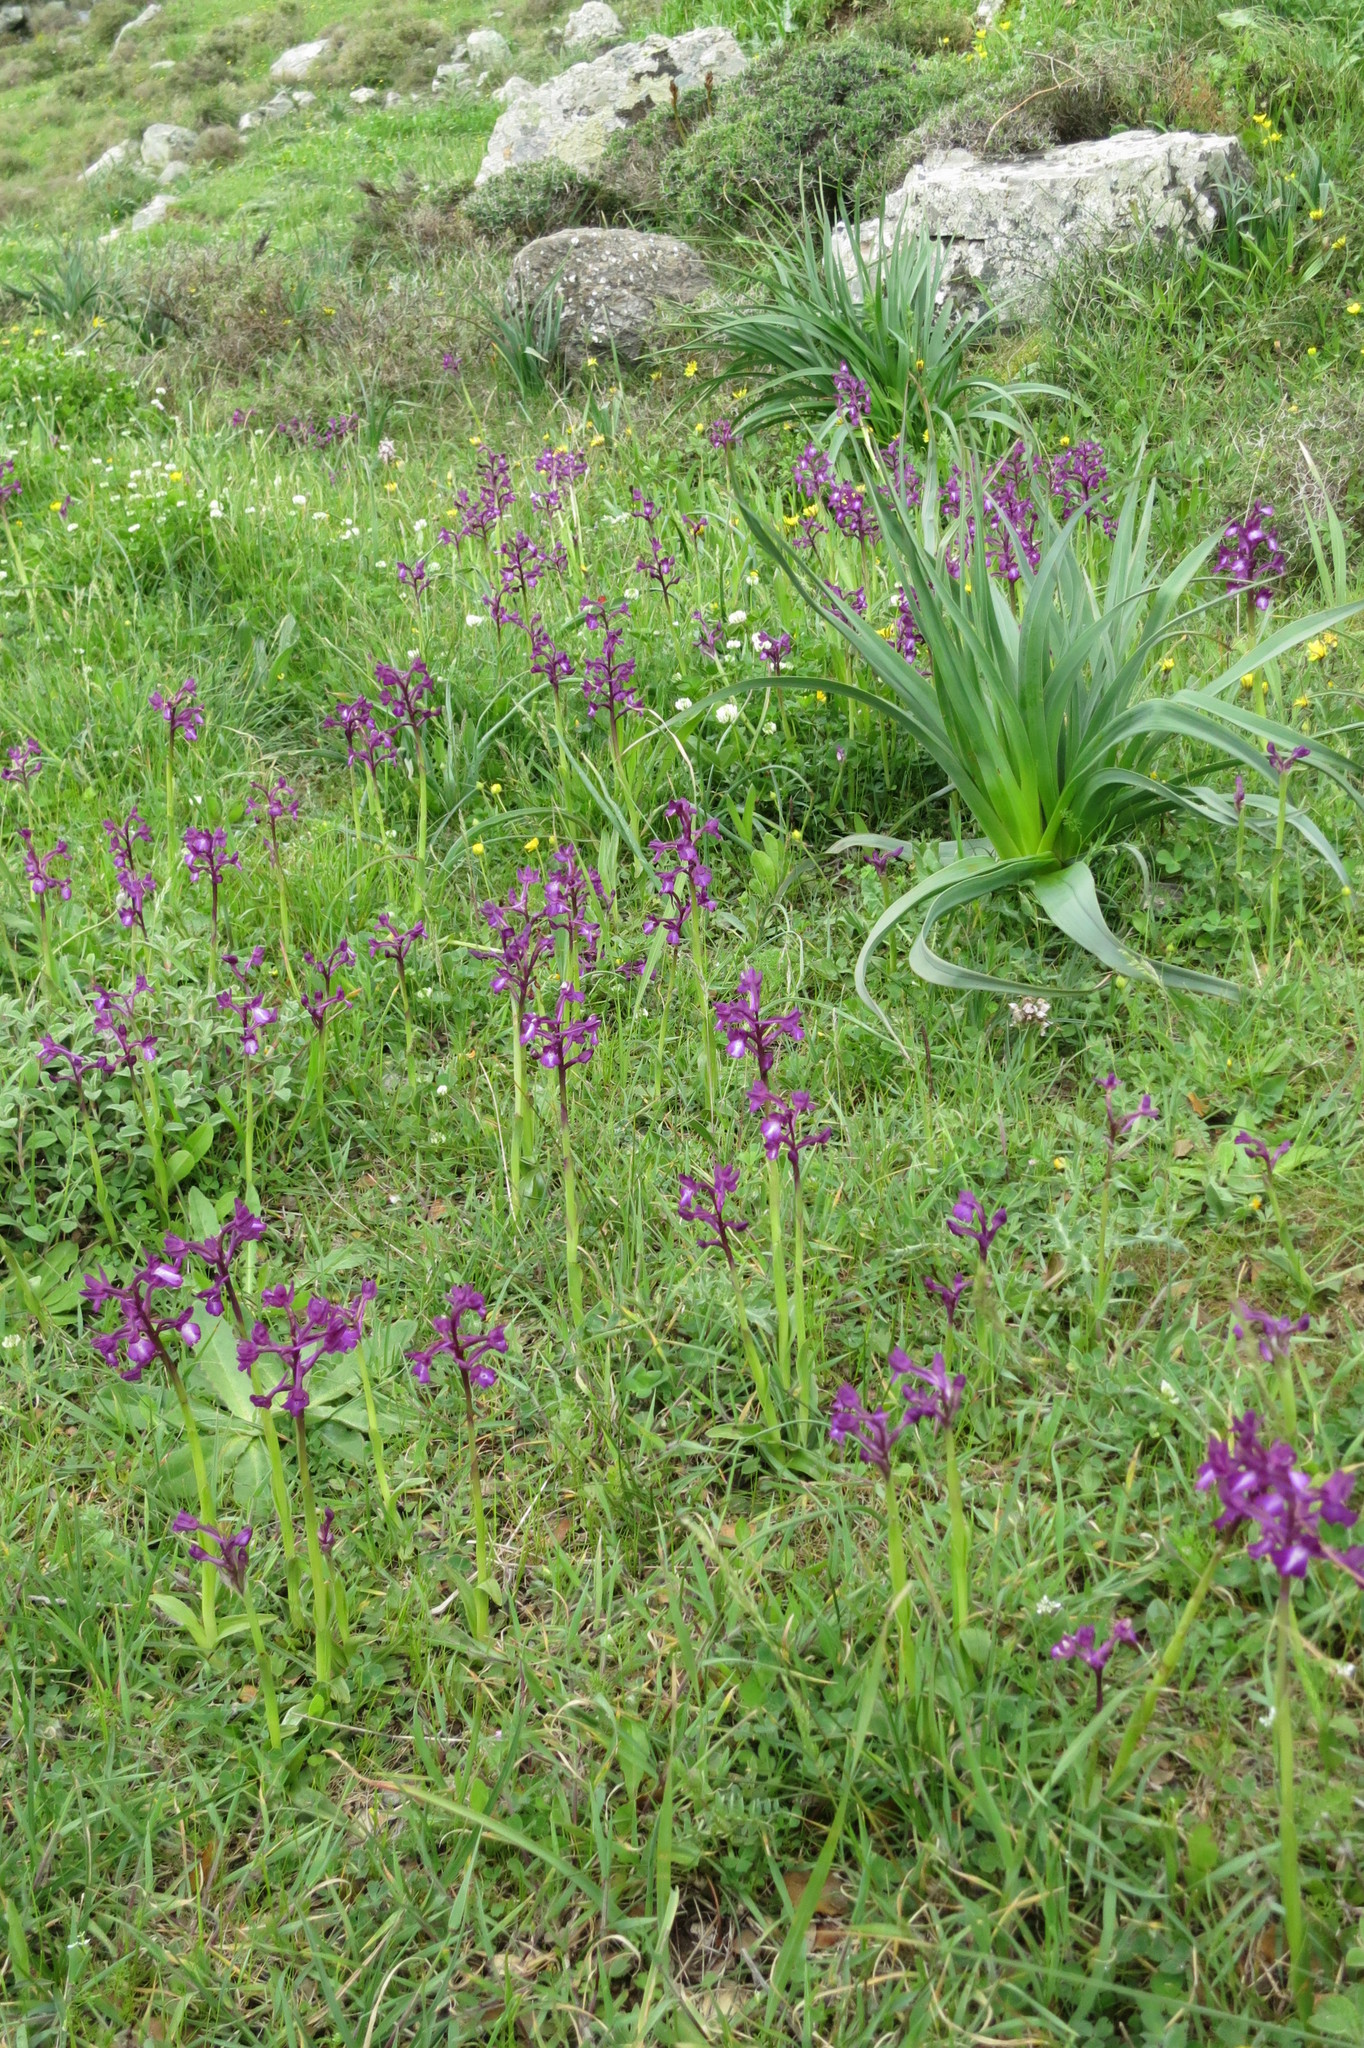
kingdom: Plantae
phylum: Tracheophyta
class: Liliopsida
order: Asparagales
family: Orchidaceae
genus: Anacamptis
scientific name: Anacamptis boryi
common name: Bory's anacamptis
